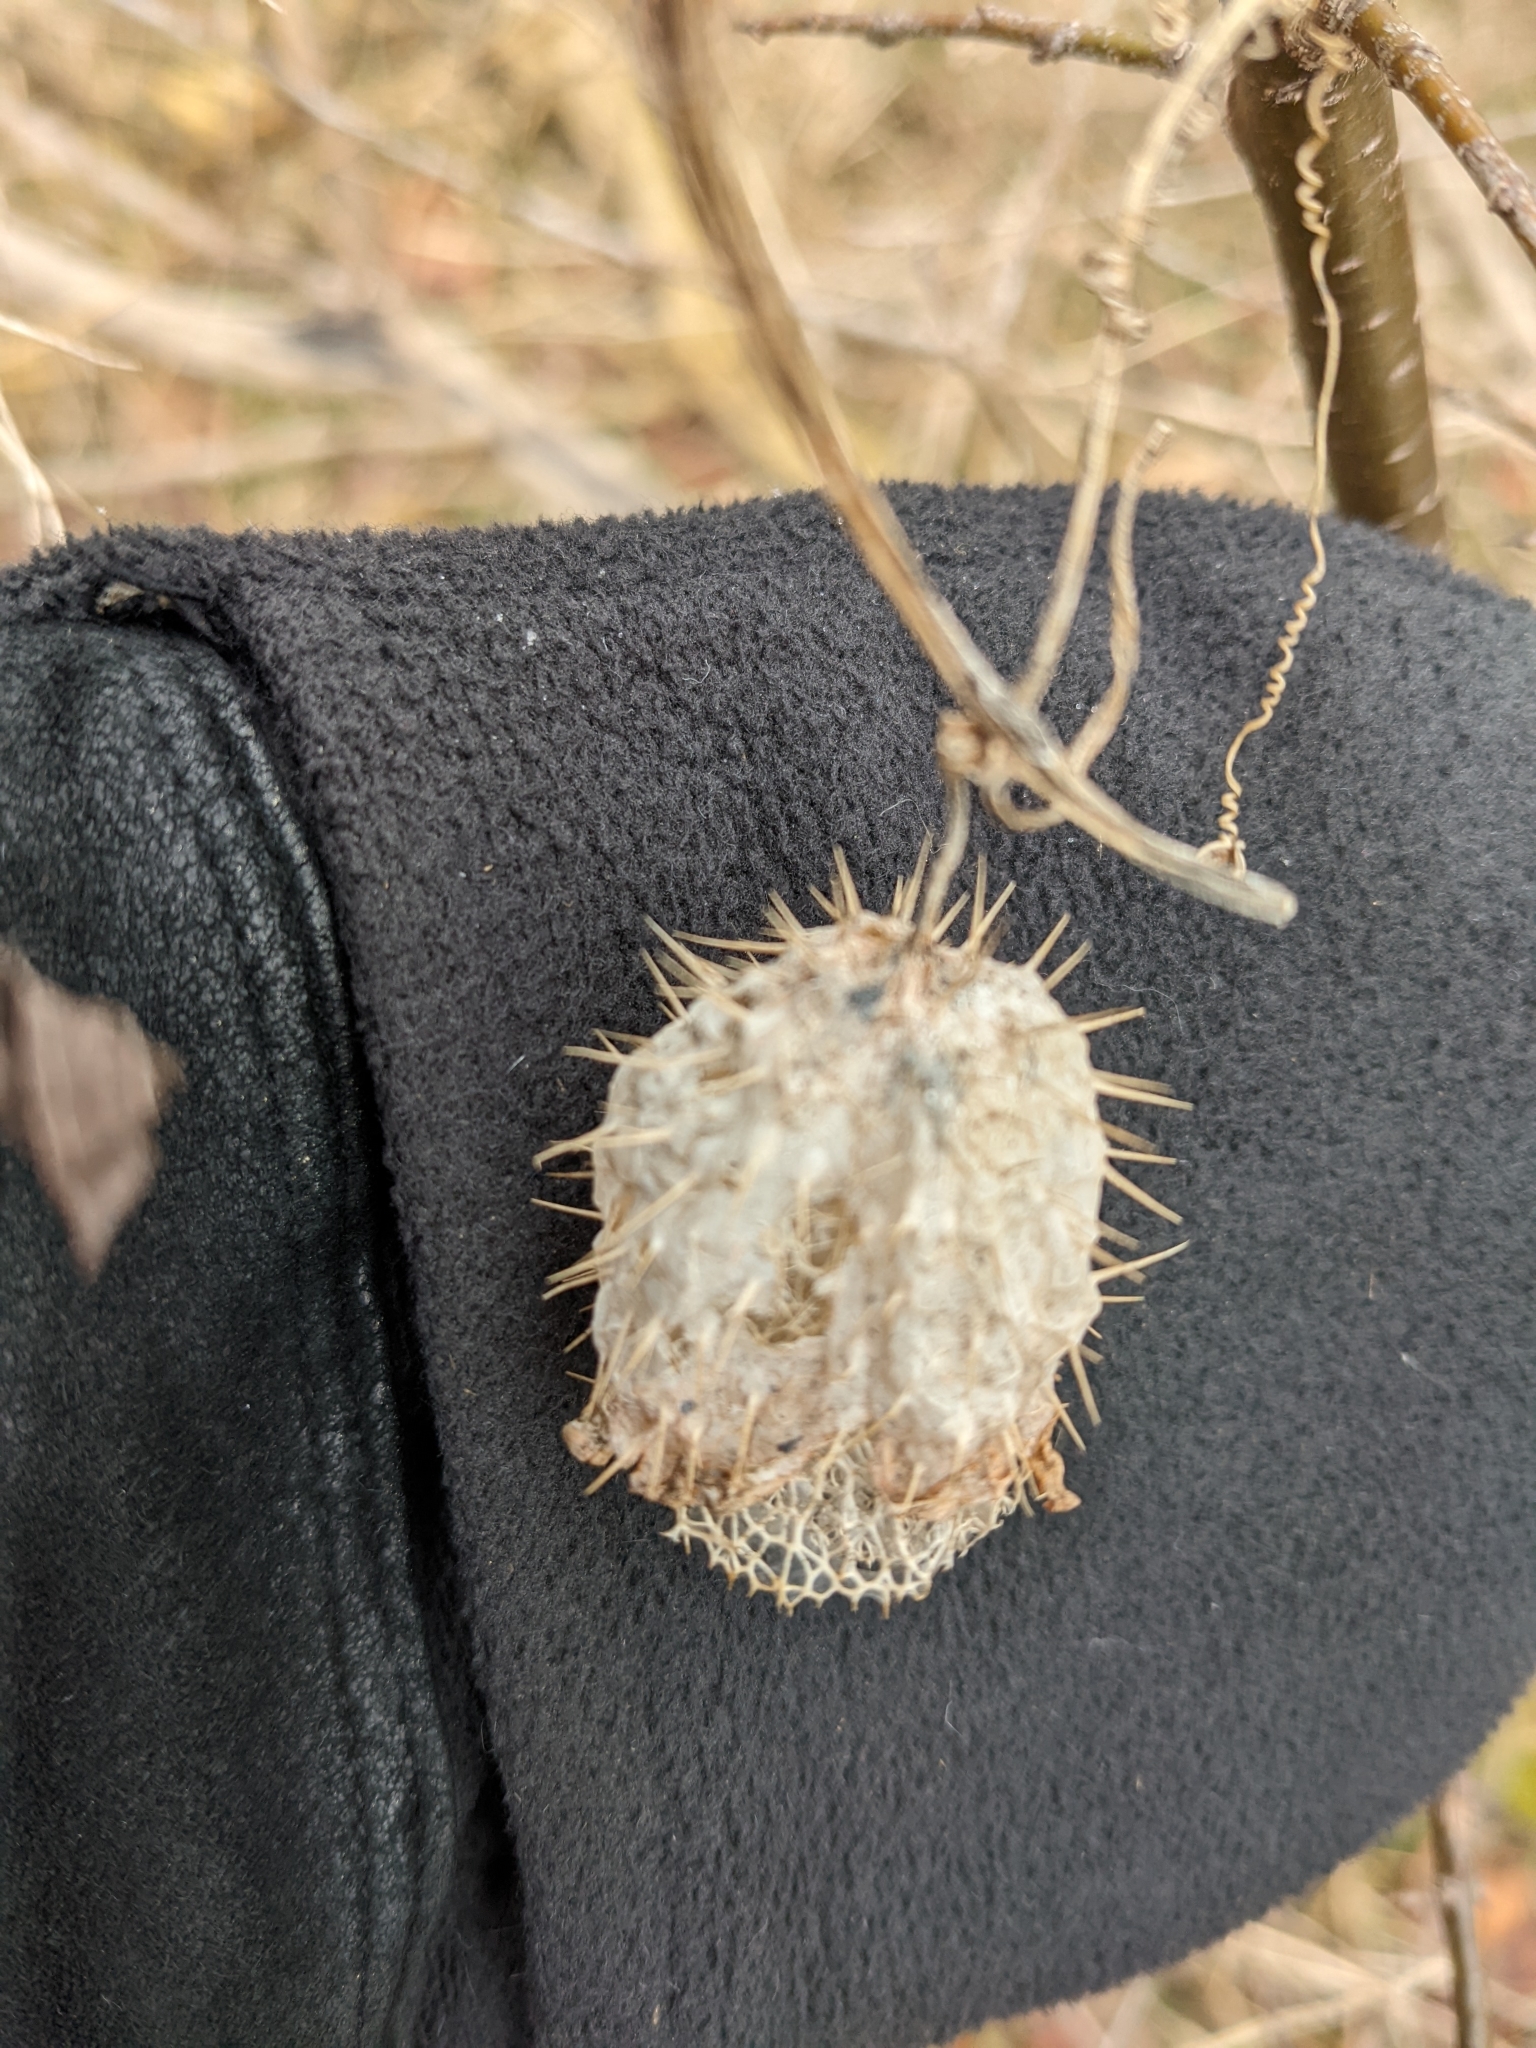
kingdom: Plantae
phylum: Tracheophyta
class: Magnoliopsida
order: Cucurbitales
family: Cucurbitaceae
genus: Echinocystis
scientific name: Echinocystis lobata
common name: Wild cucumber
